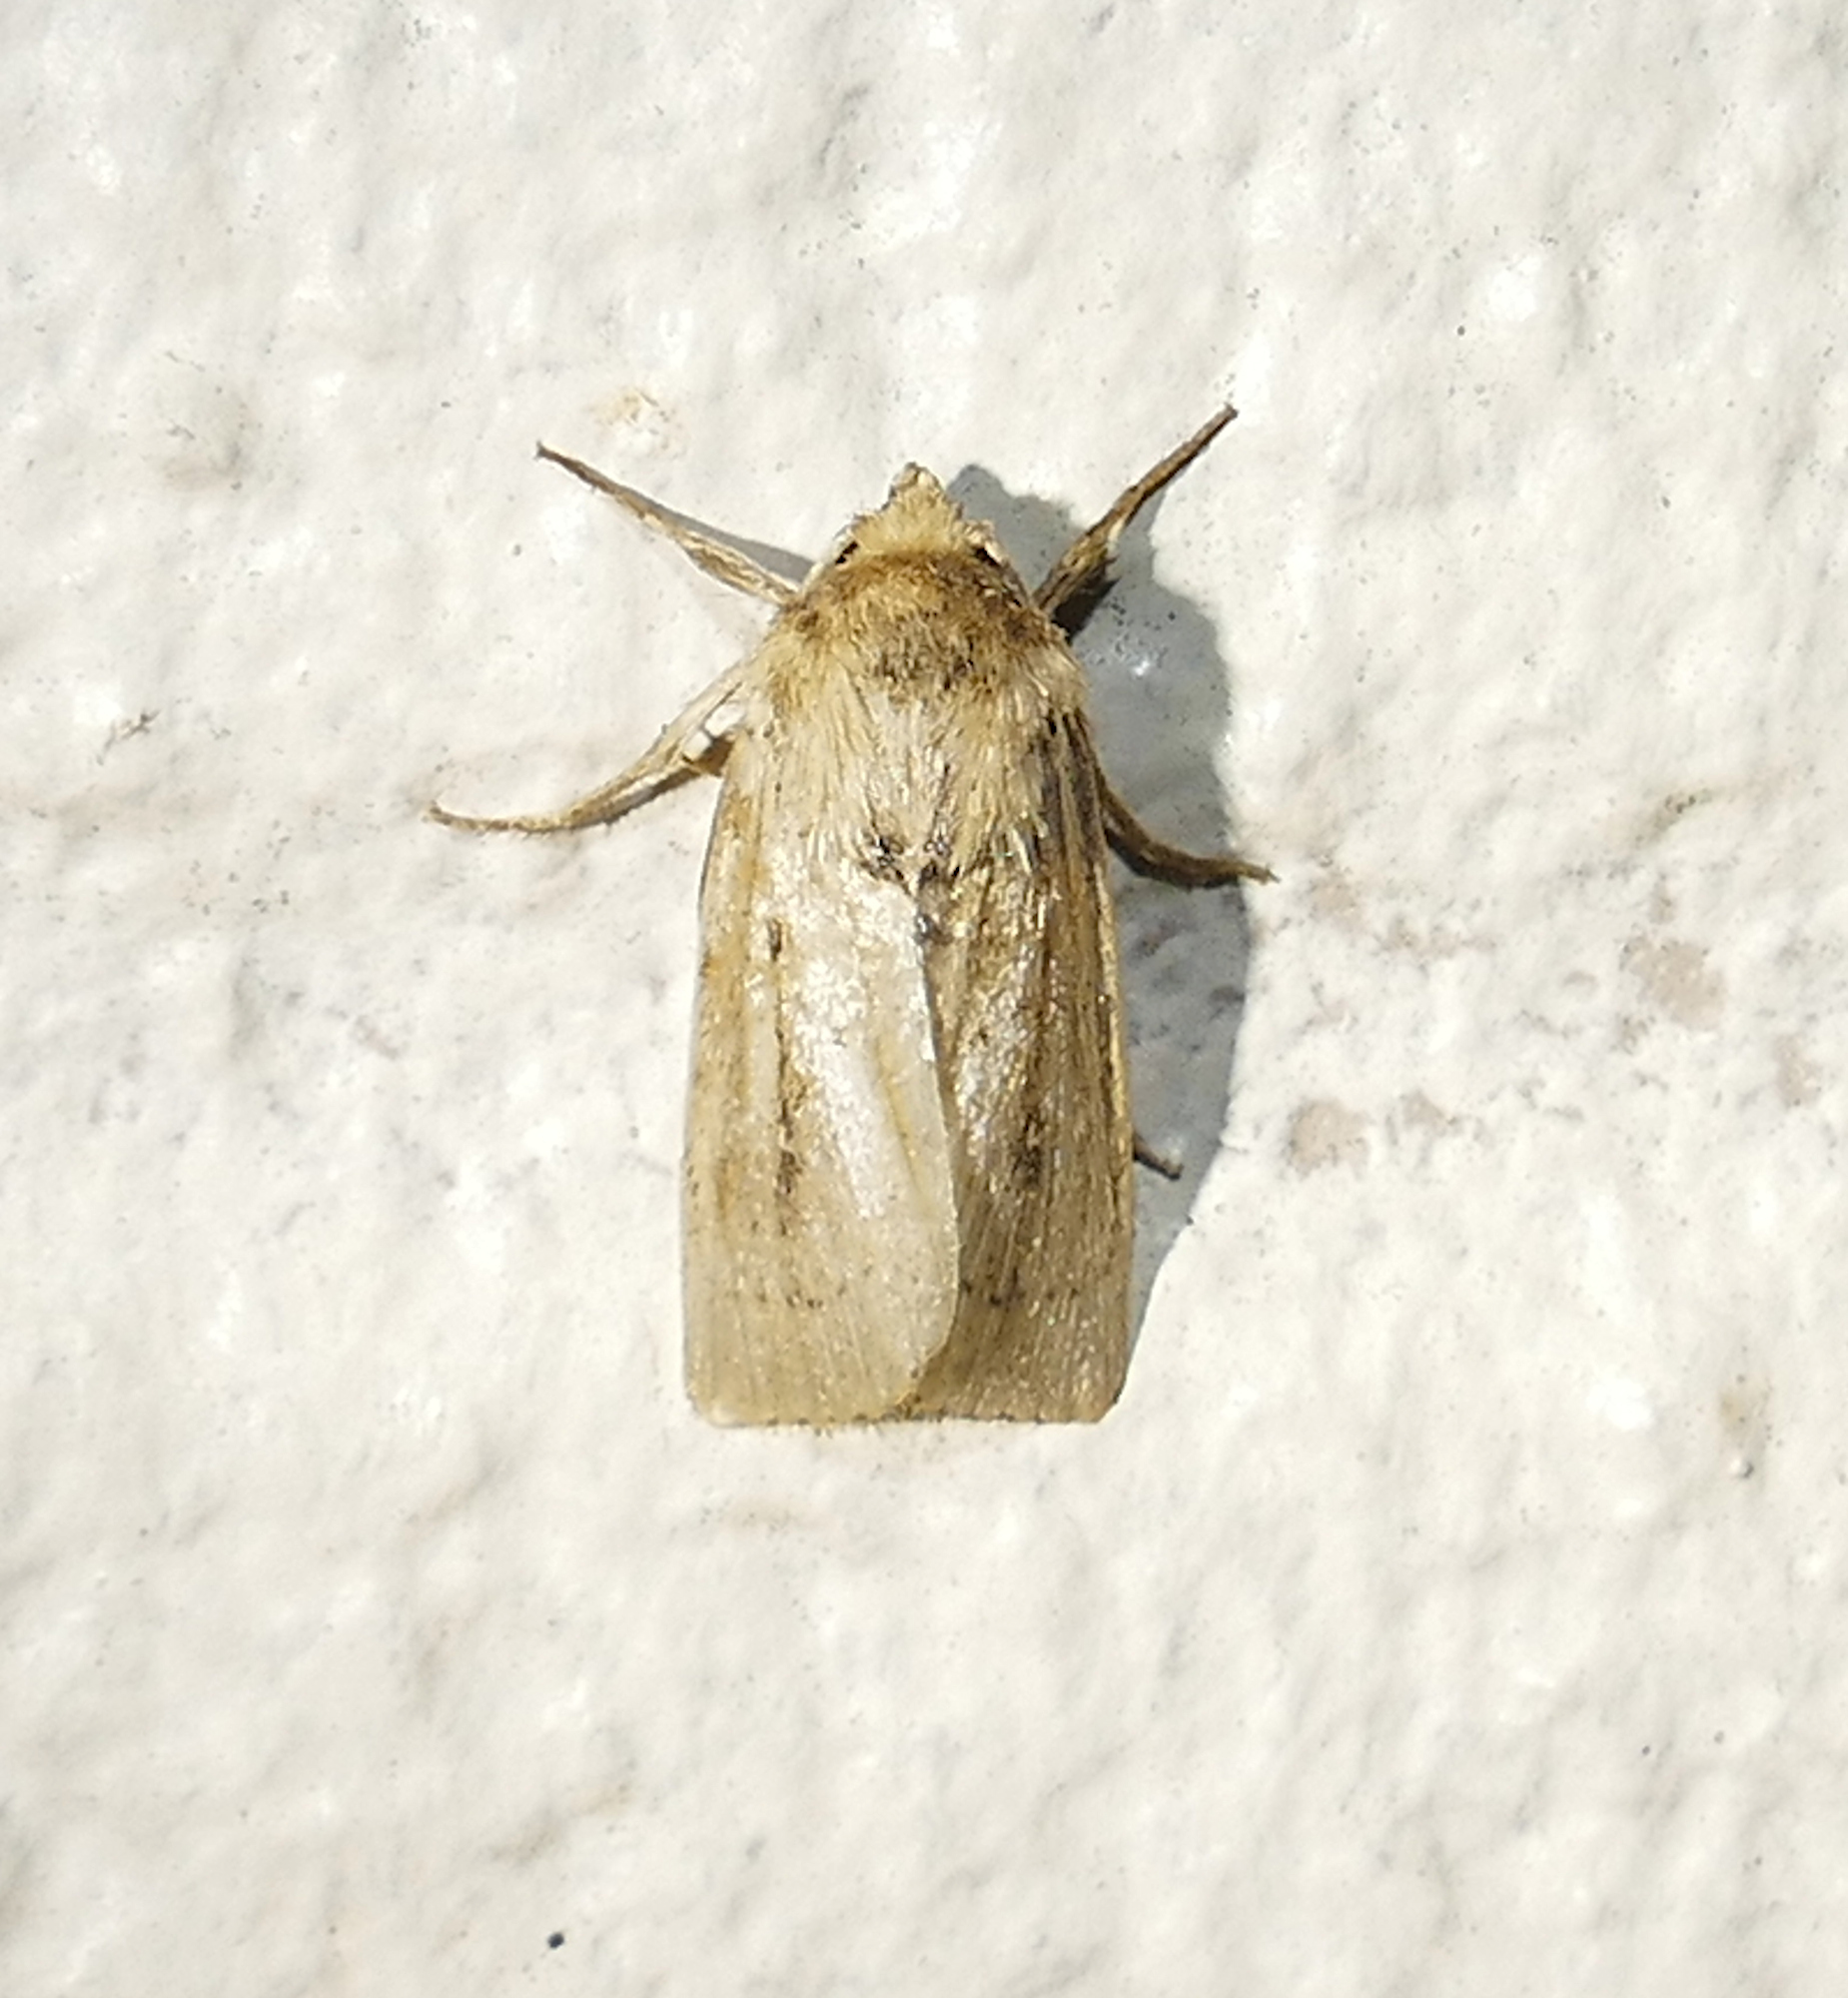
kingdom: Animalia
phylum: Arthropoda
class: Insecta
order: Lepidoptera
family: Noctuidae
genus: Leucania
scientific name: Leucania incognita
